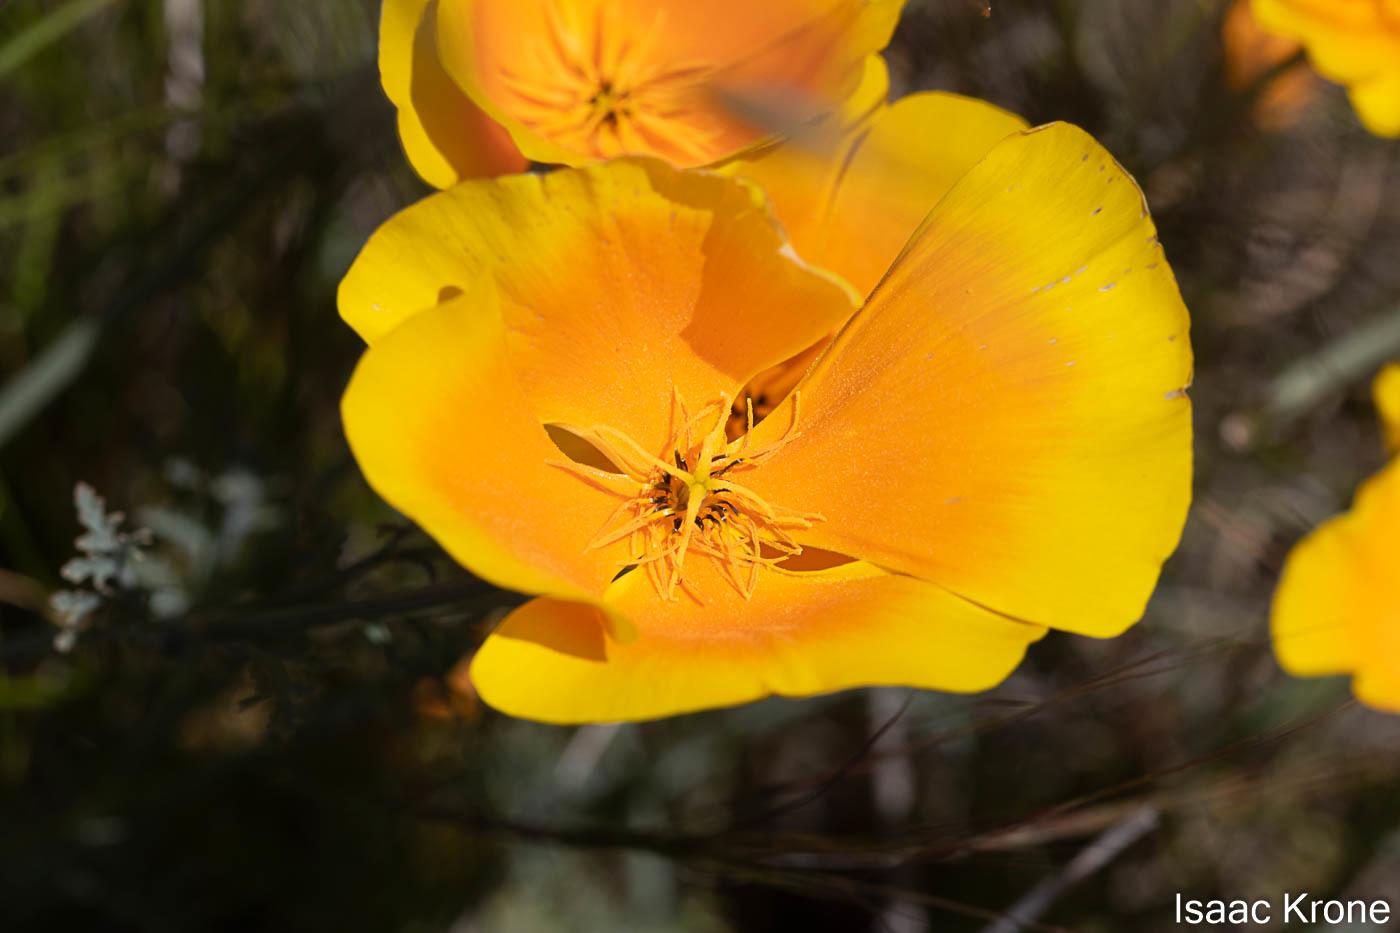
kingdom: Plantae
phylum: Tracheophyta
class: Magnoliopsida
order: Ranunculales
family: Papaveraceae
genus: Eschscholzia
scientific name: Eschscholzia californica
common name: California poppy
